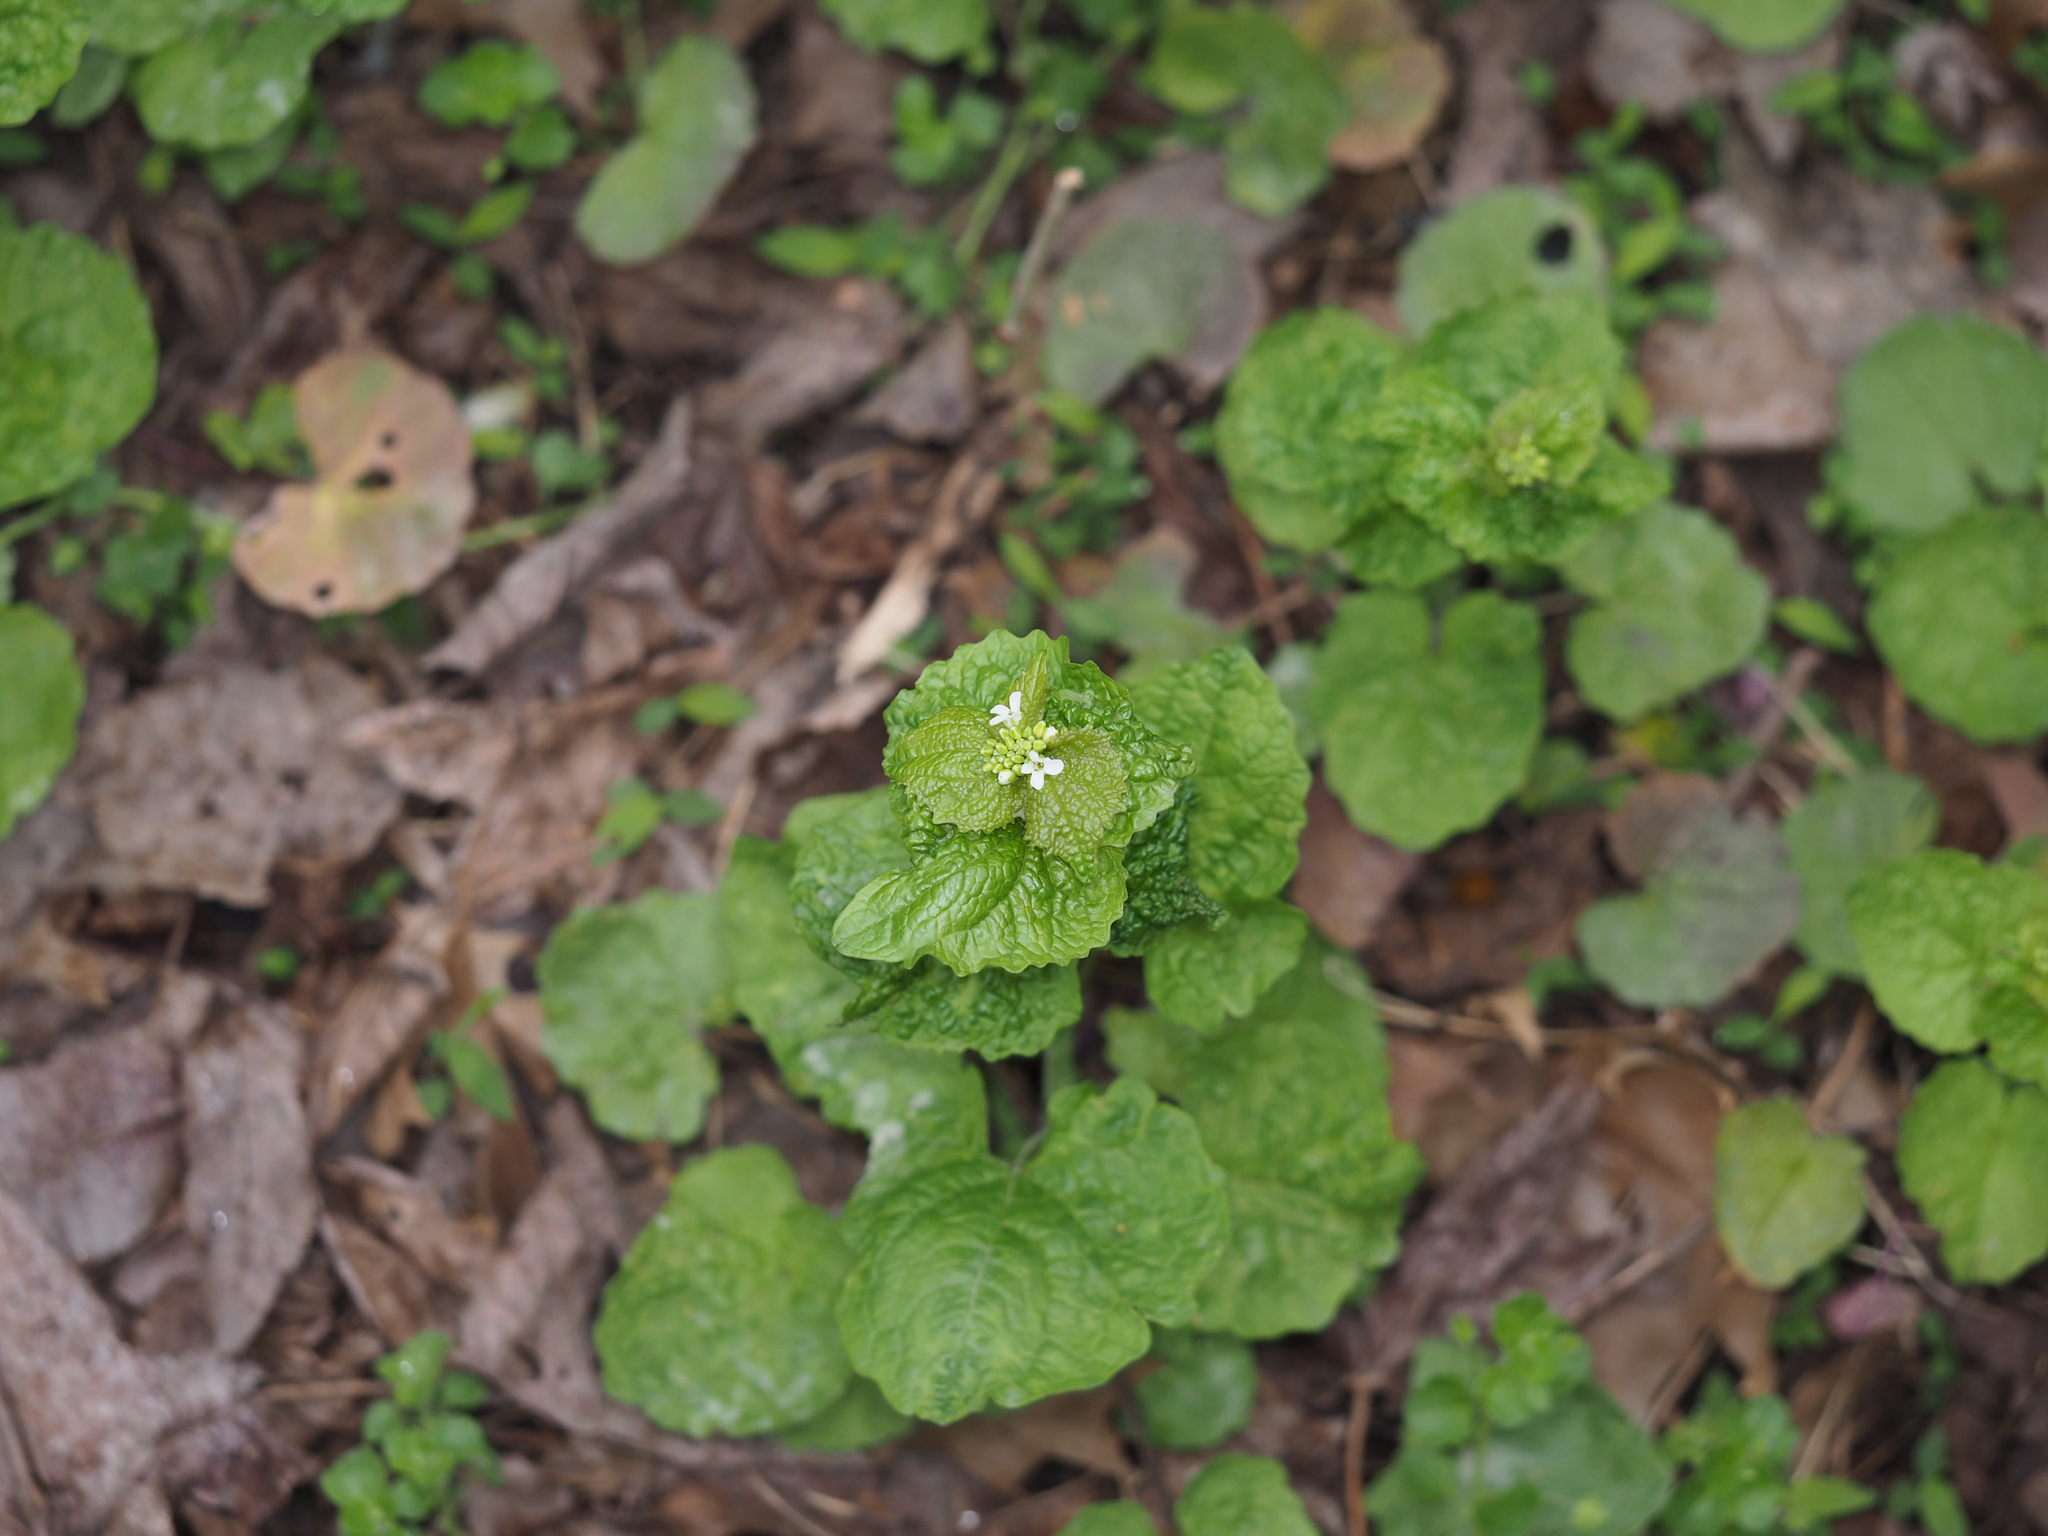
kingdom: Plantae
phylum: Tracheophyta
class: Magnoliopsida
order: Brassicales
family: Brassicaceae
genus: Alliaria
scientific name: Alliaria petiolata
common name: Garlic mustard
